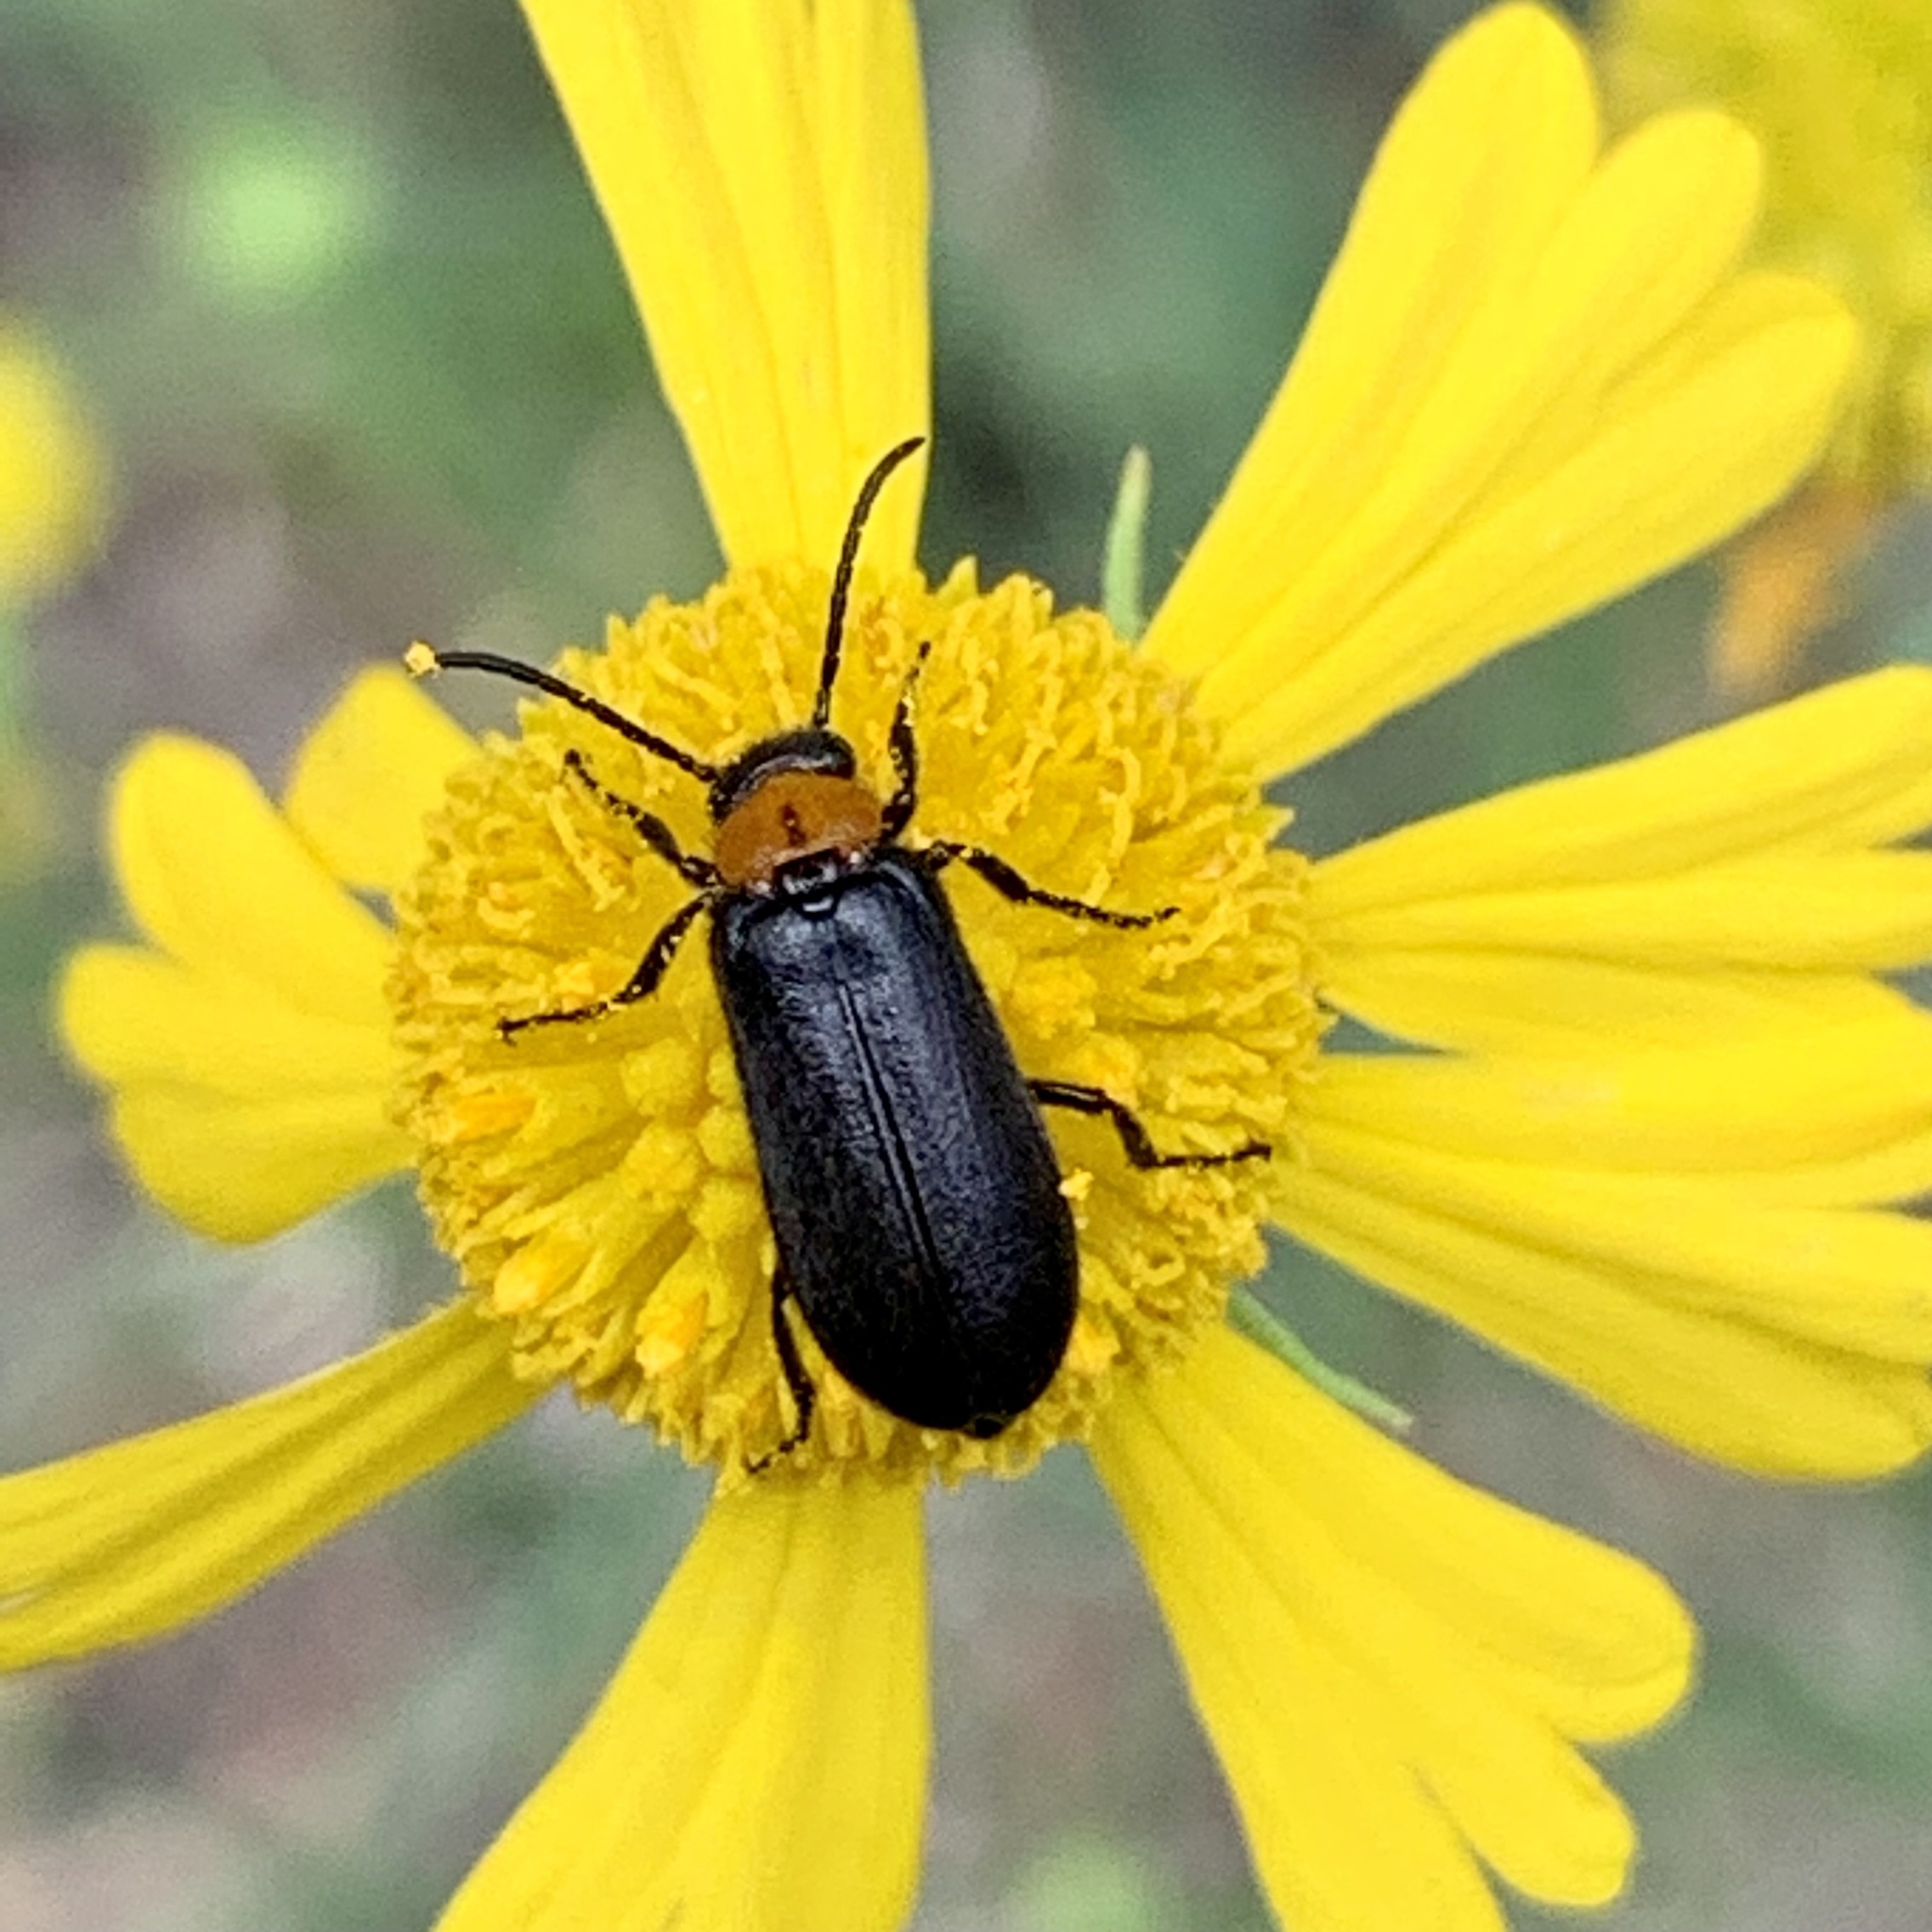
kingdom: Animalia
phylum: Arthropoda
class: Insecta
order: Coleoptera
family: Meloidae
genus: Nemognatha
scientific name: Nemognatha nemorensis
